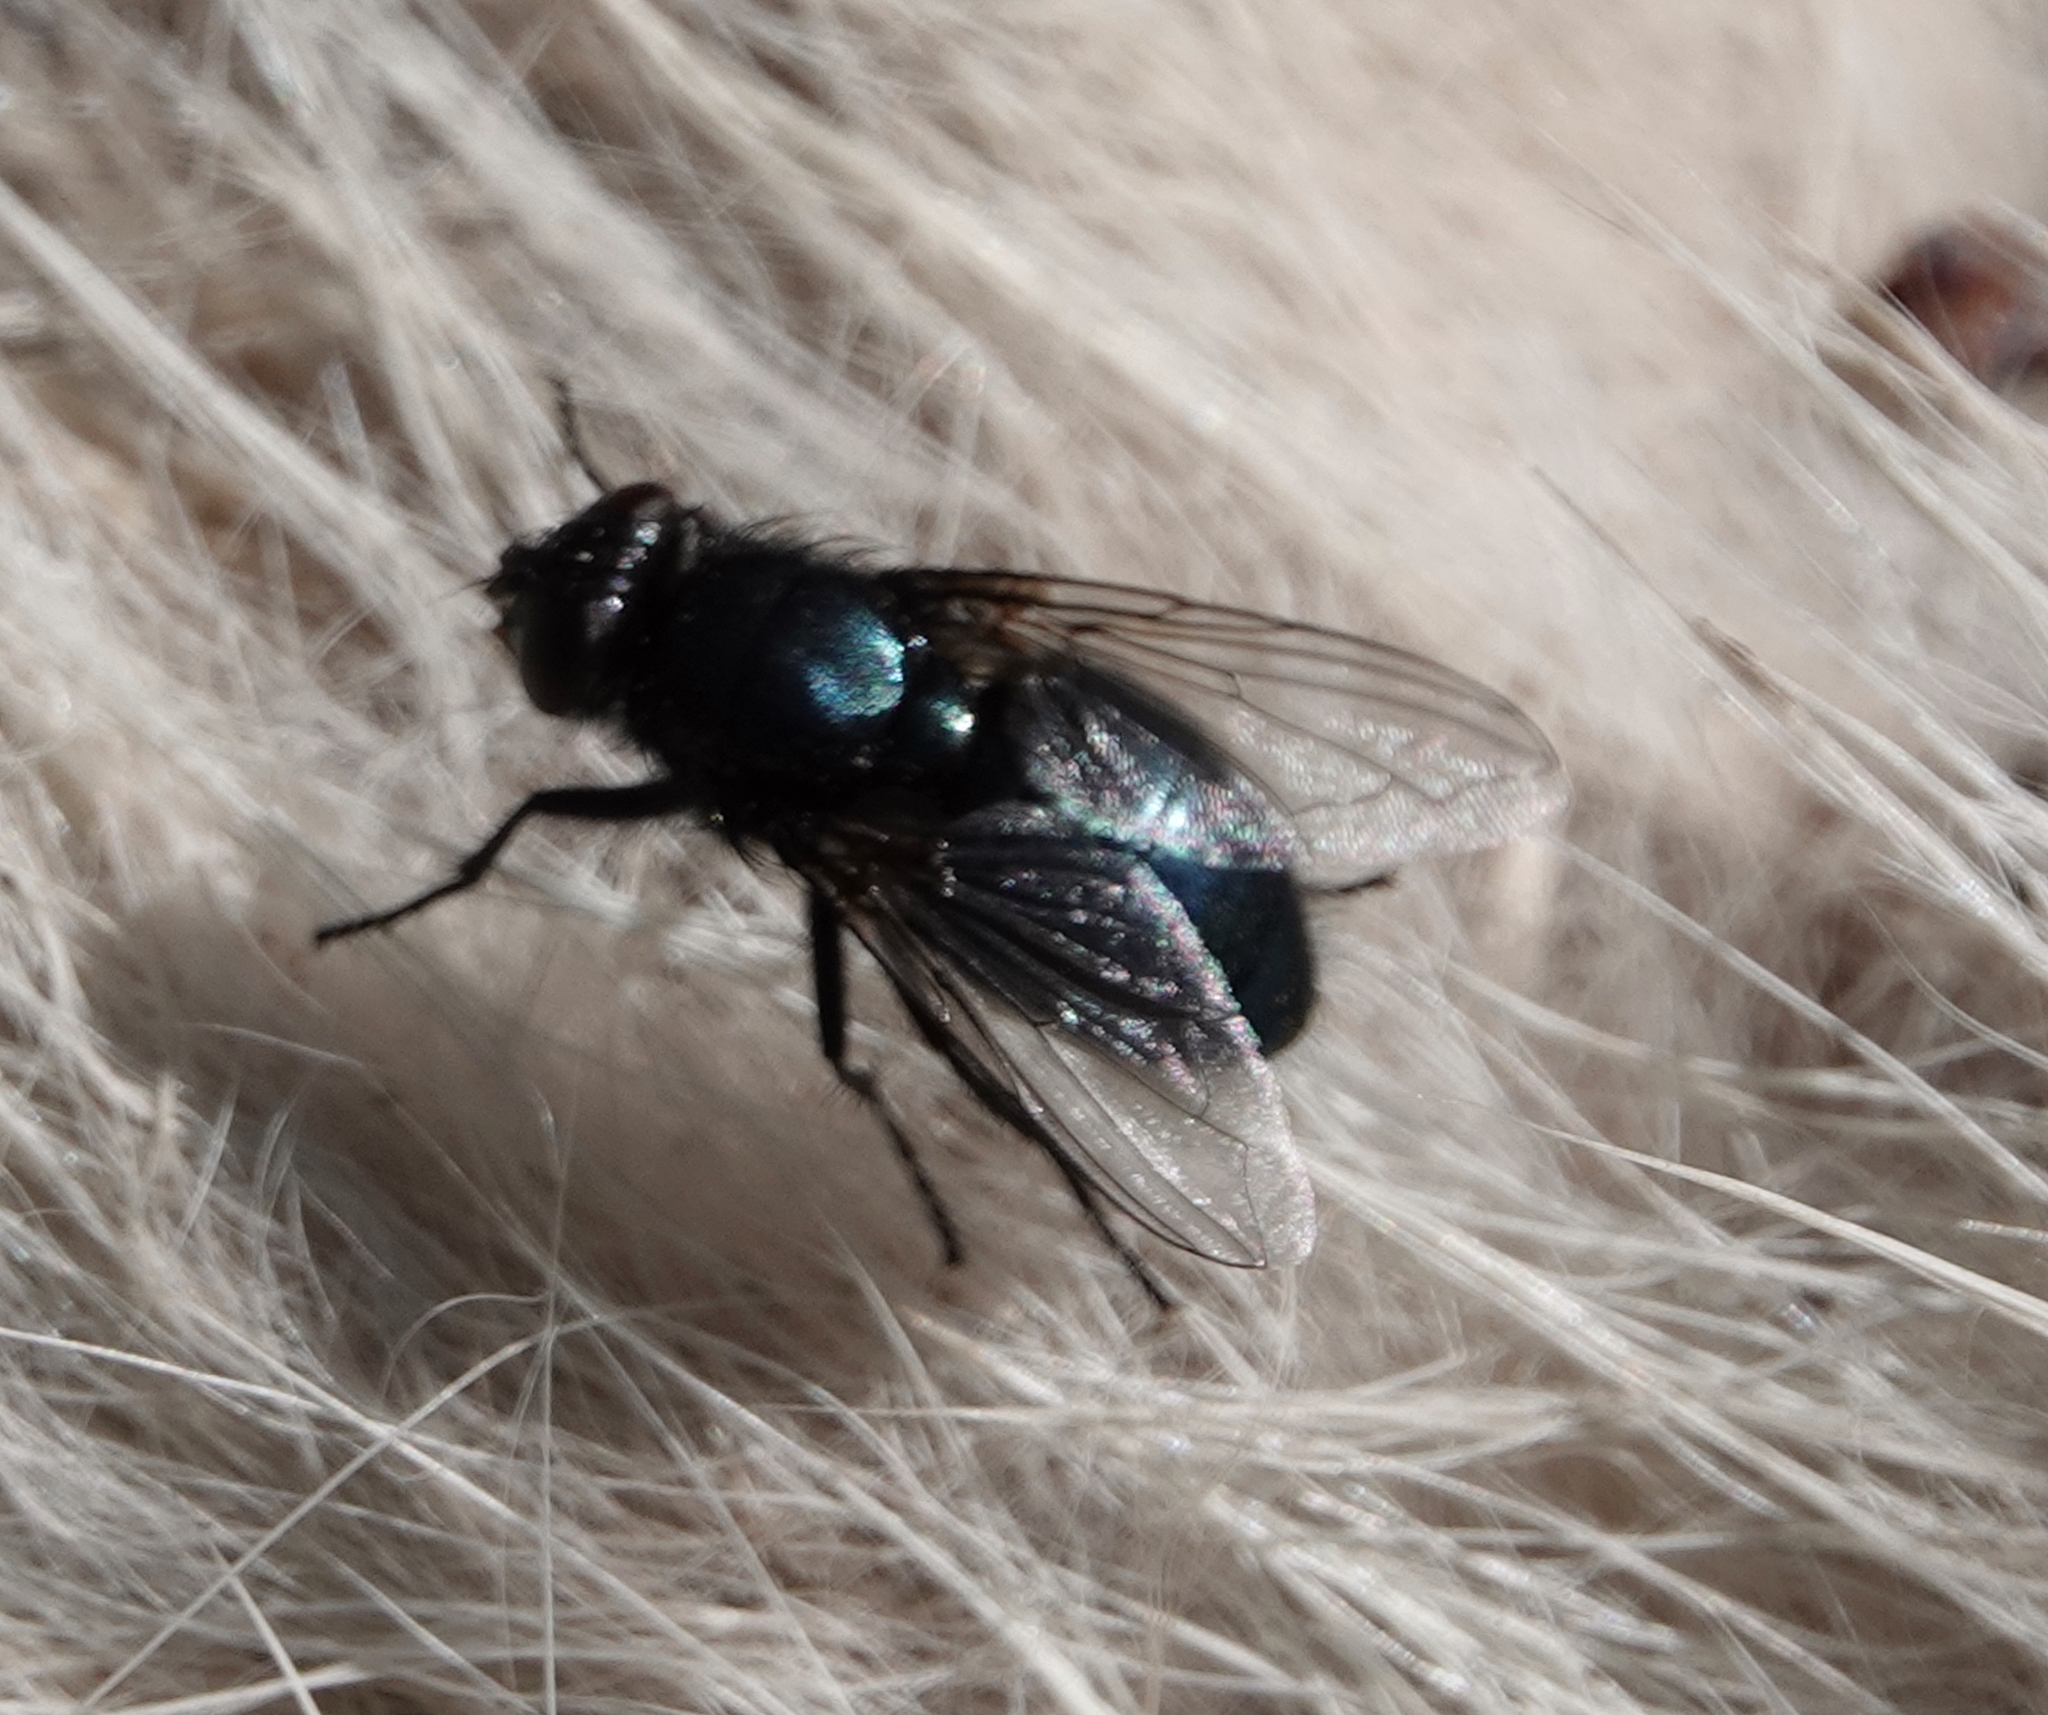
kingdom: Animalia
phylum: Arthropoda
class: Insecta
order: Diptera
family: Calliphoridae
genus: Protophormia
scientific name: Protophormia terraenovae
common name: Blackbottle
